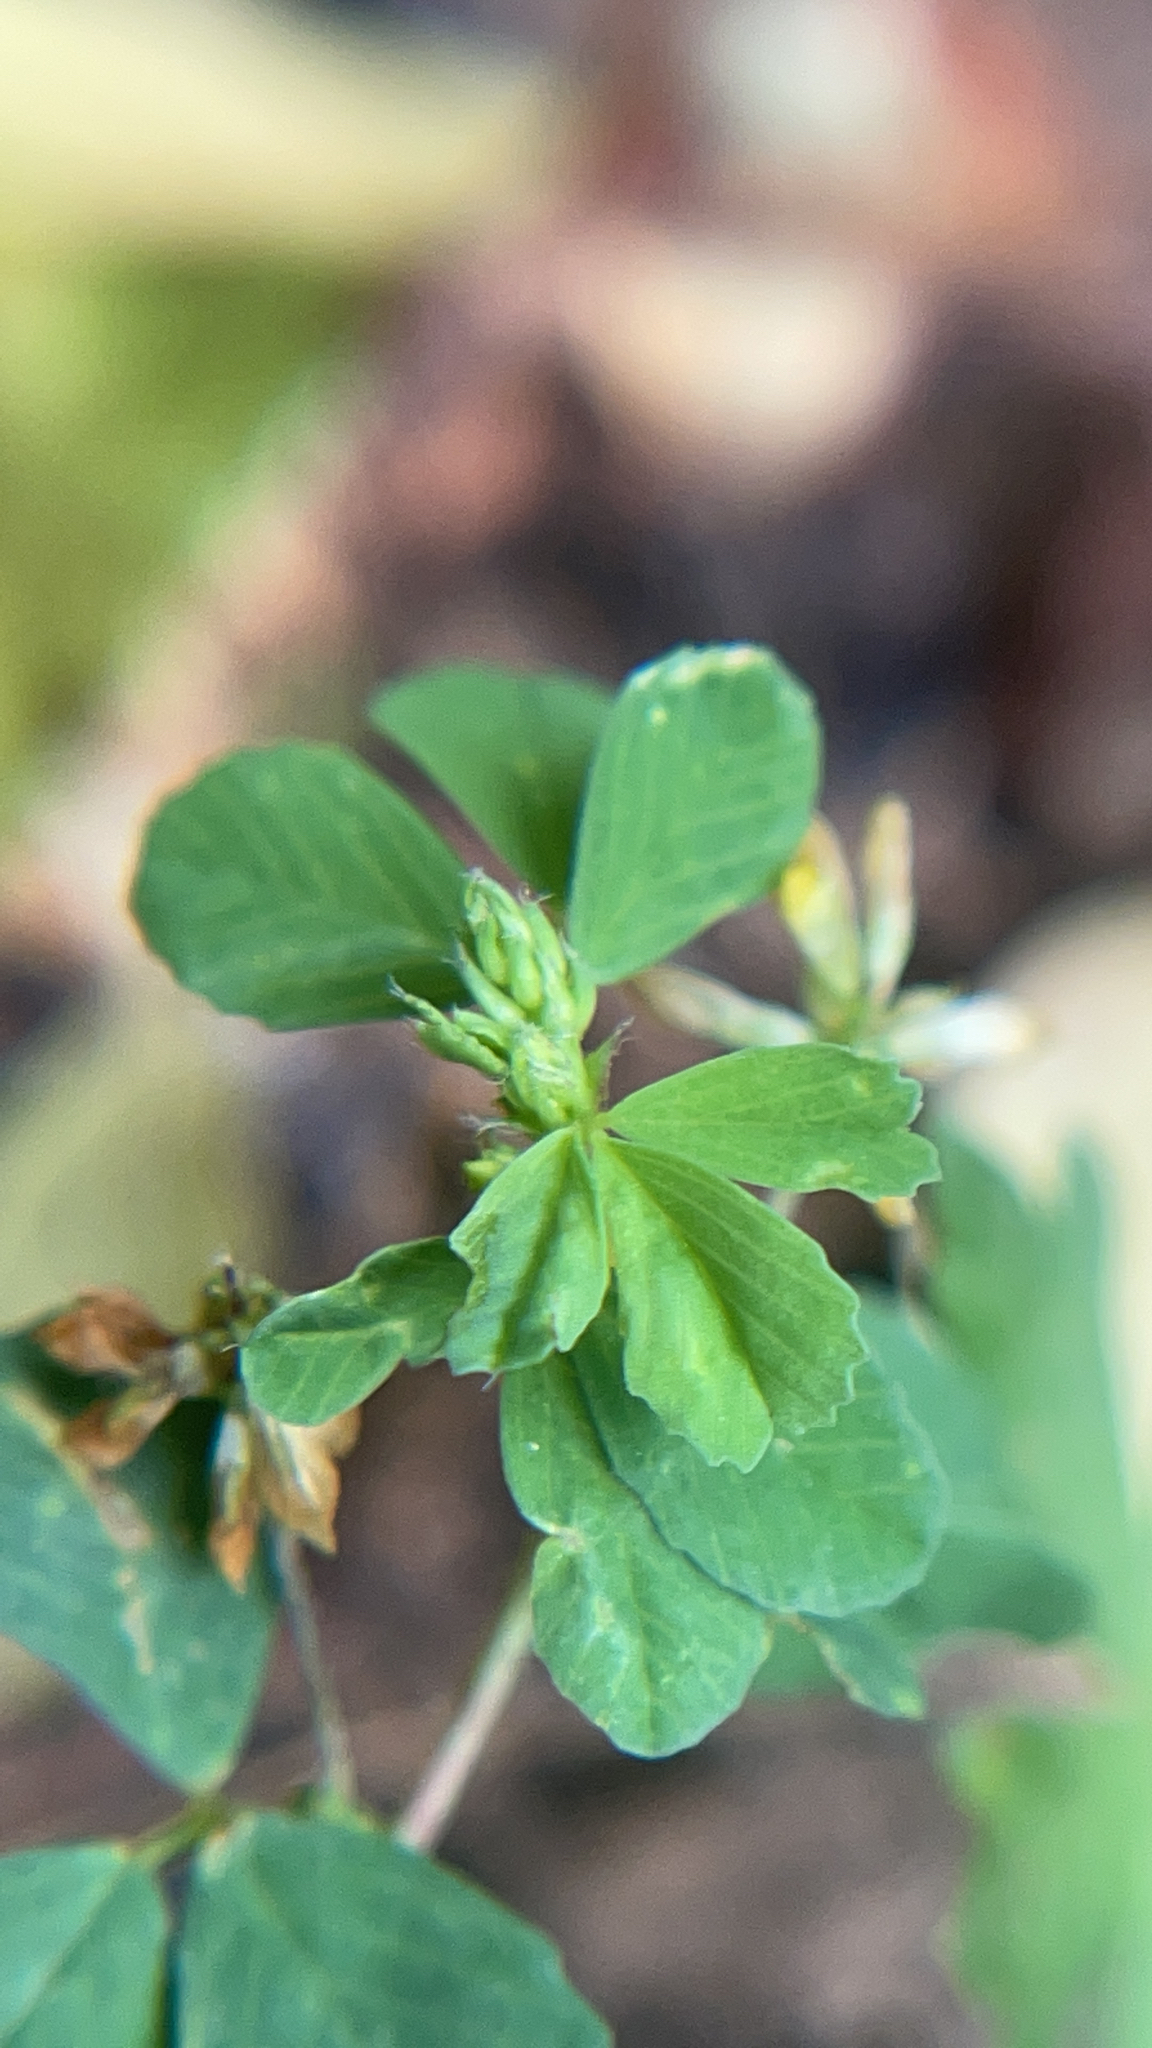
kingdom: Plantae
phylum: Tracheophyta
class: Magnoliopsida
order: Fabales
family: Fabaceae
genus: Trifolium
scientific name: Trifolium dubium
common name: Suckling clover
